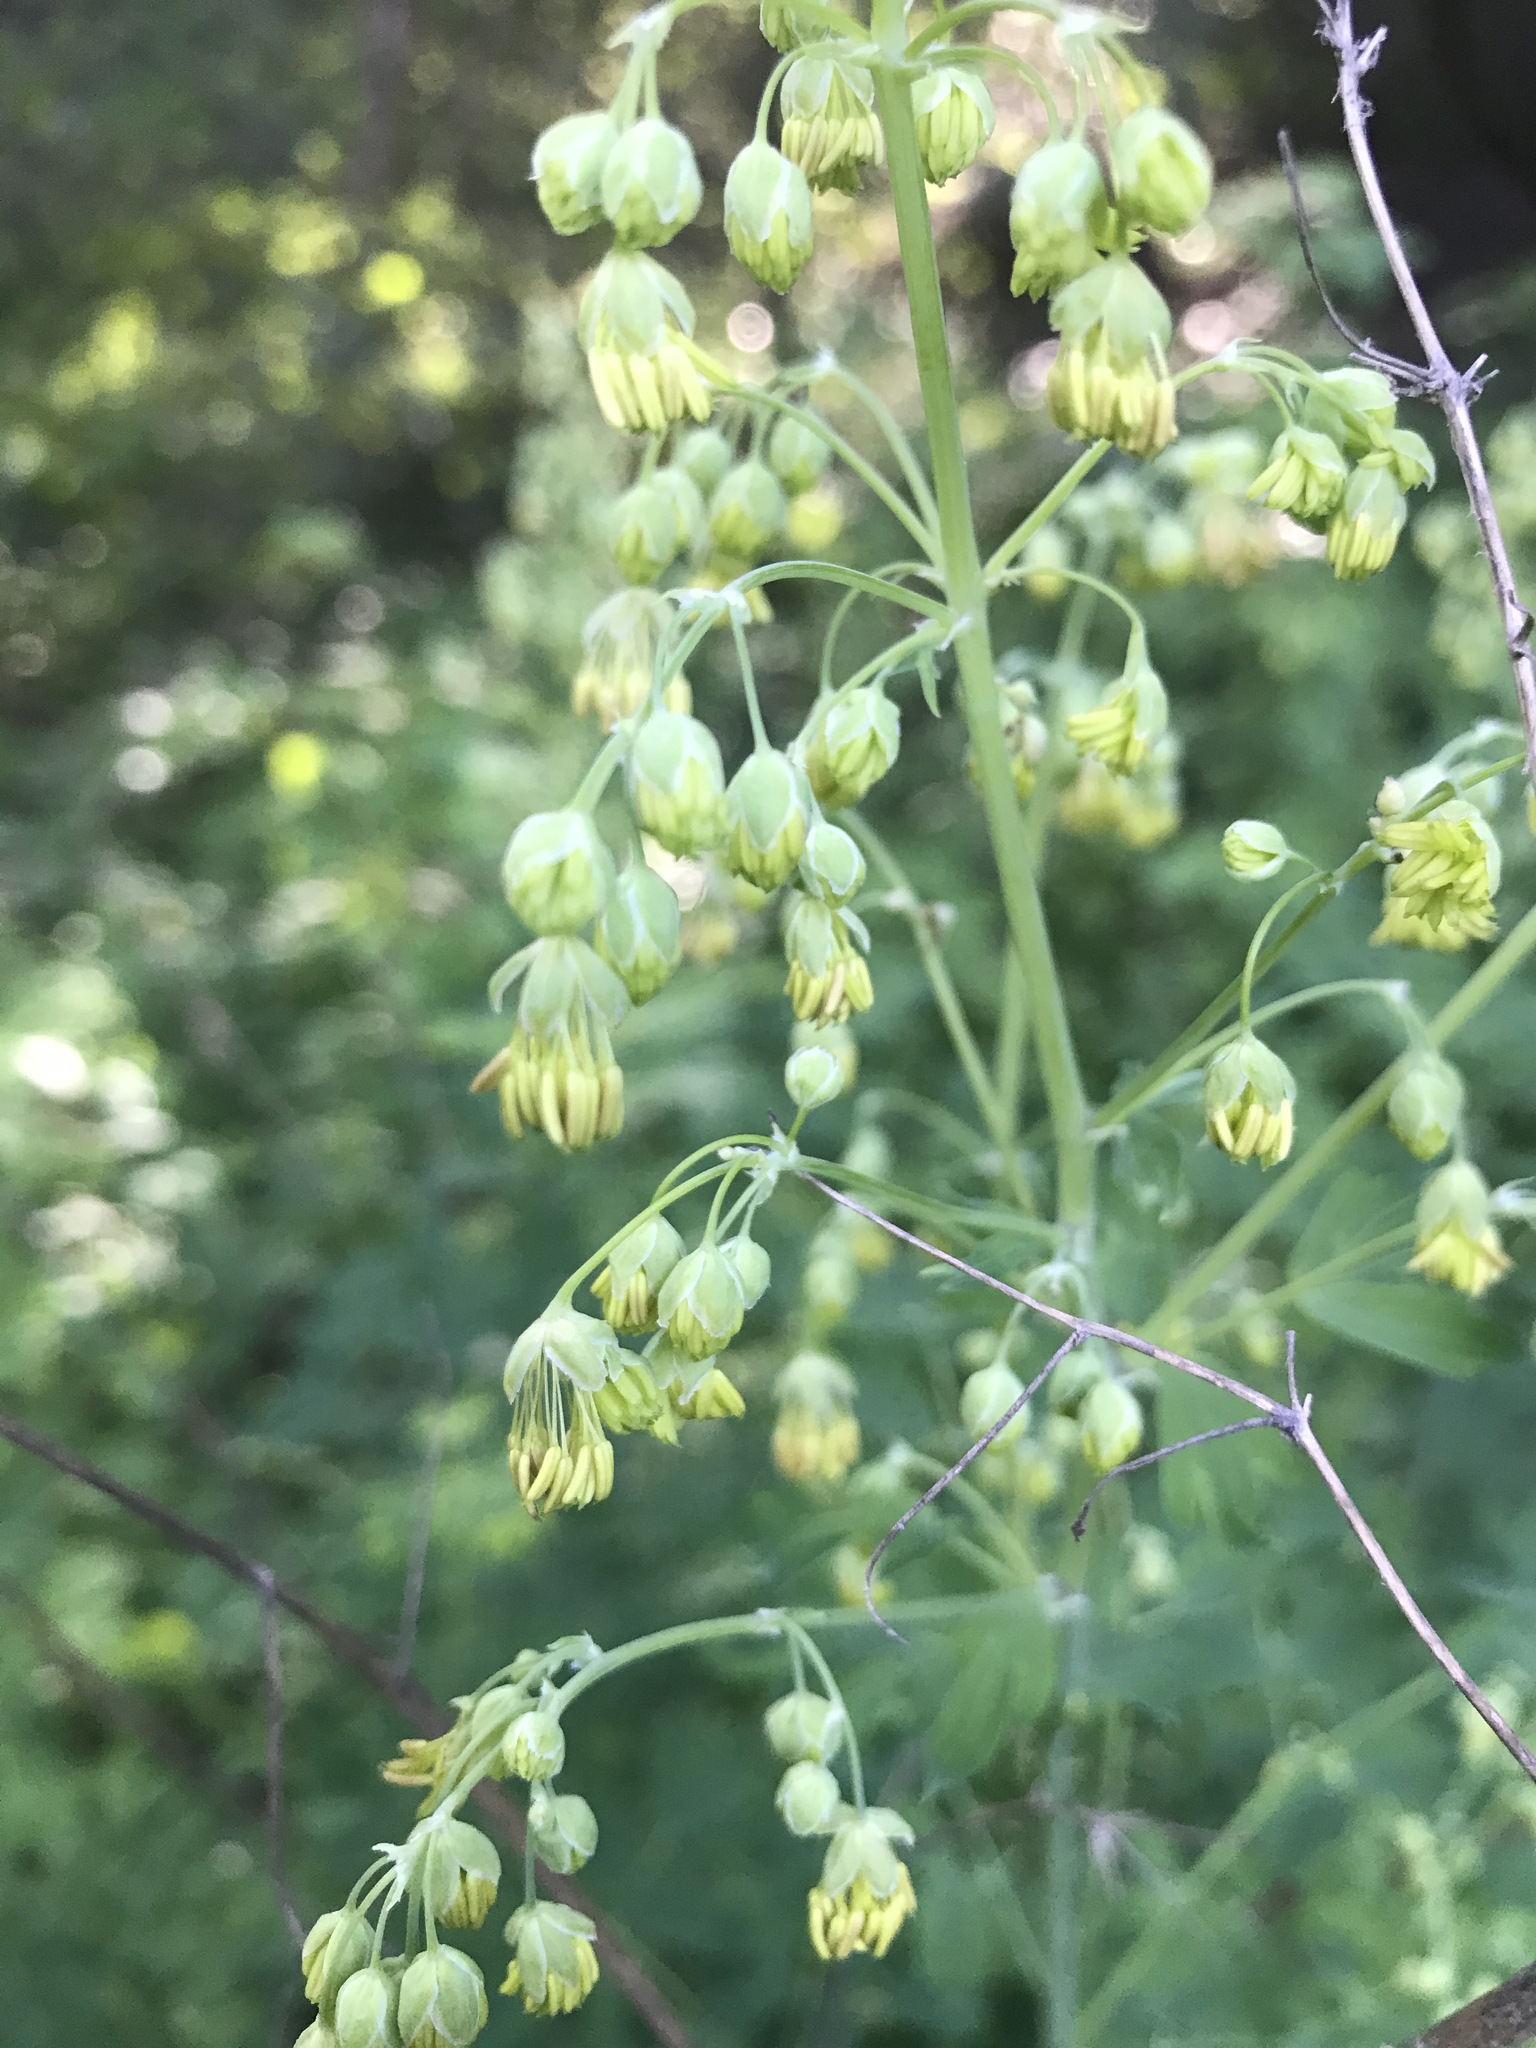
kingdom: Plantae
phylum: Tracheophyta
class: Magnoliopsida
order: Ranunculales
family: Ranunculaceae
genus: Thalictrum
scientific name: Thalictrum fendleri
